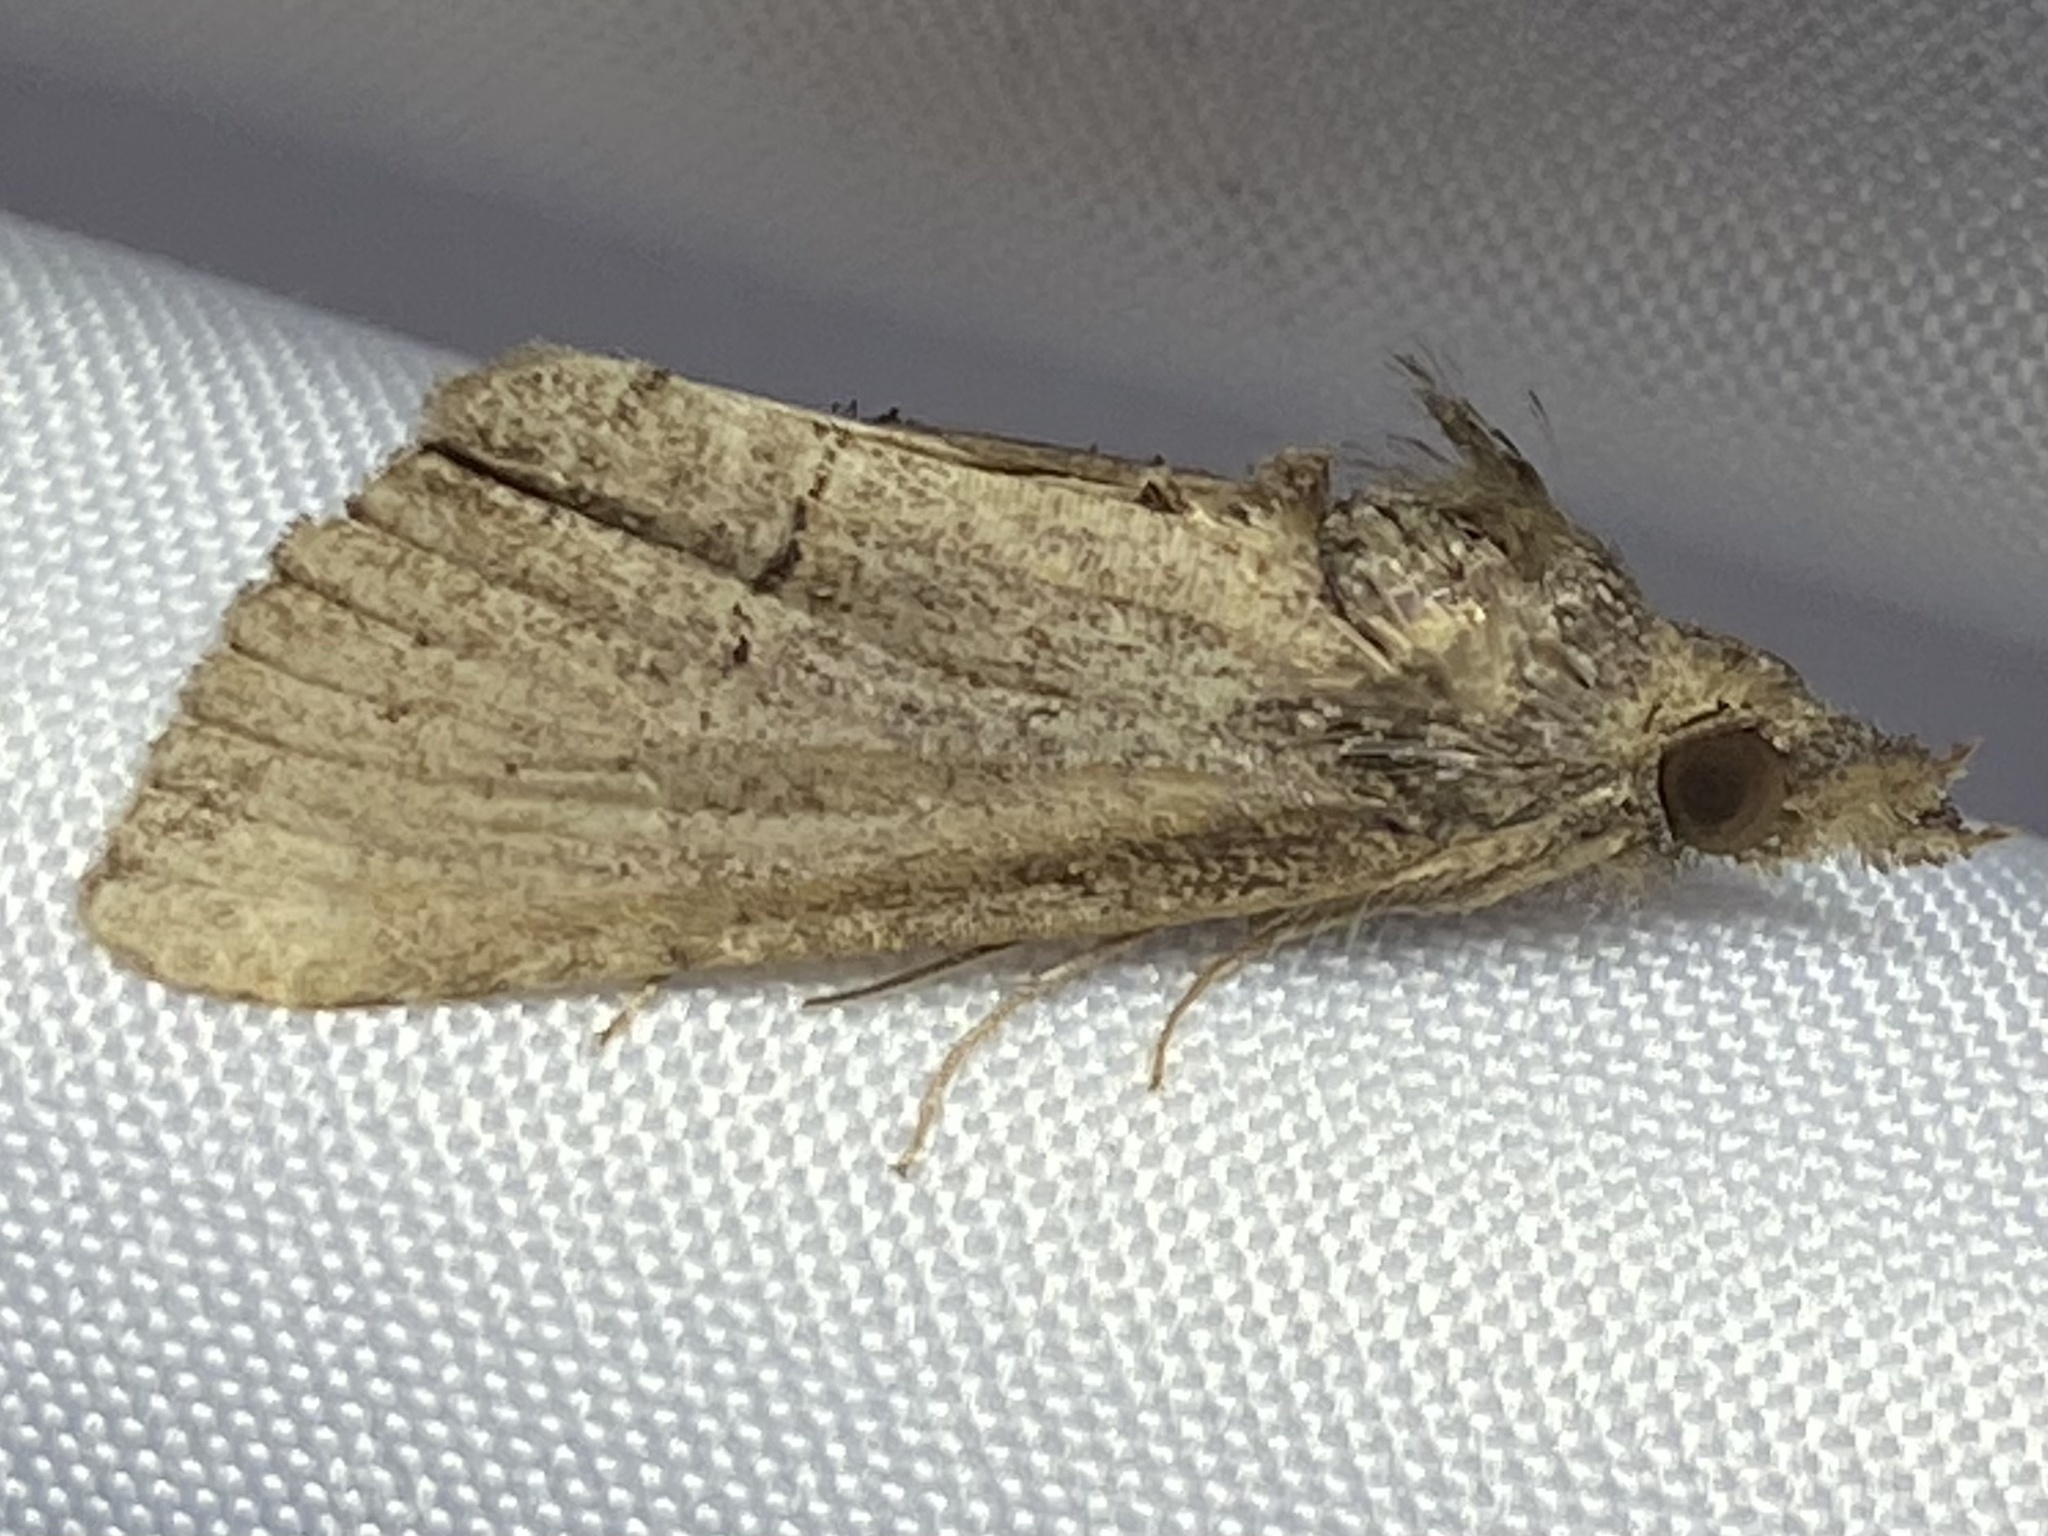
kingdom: Animalia
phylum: Arthropoda
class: Insecta
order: Lepidoptera
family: Erebidae
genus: Hypena
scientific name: Hypena scabra
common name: Green cloverworm
